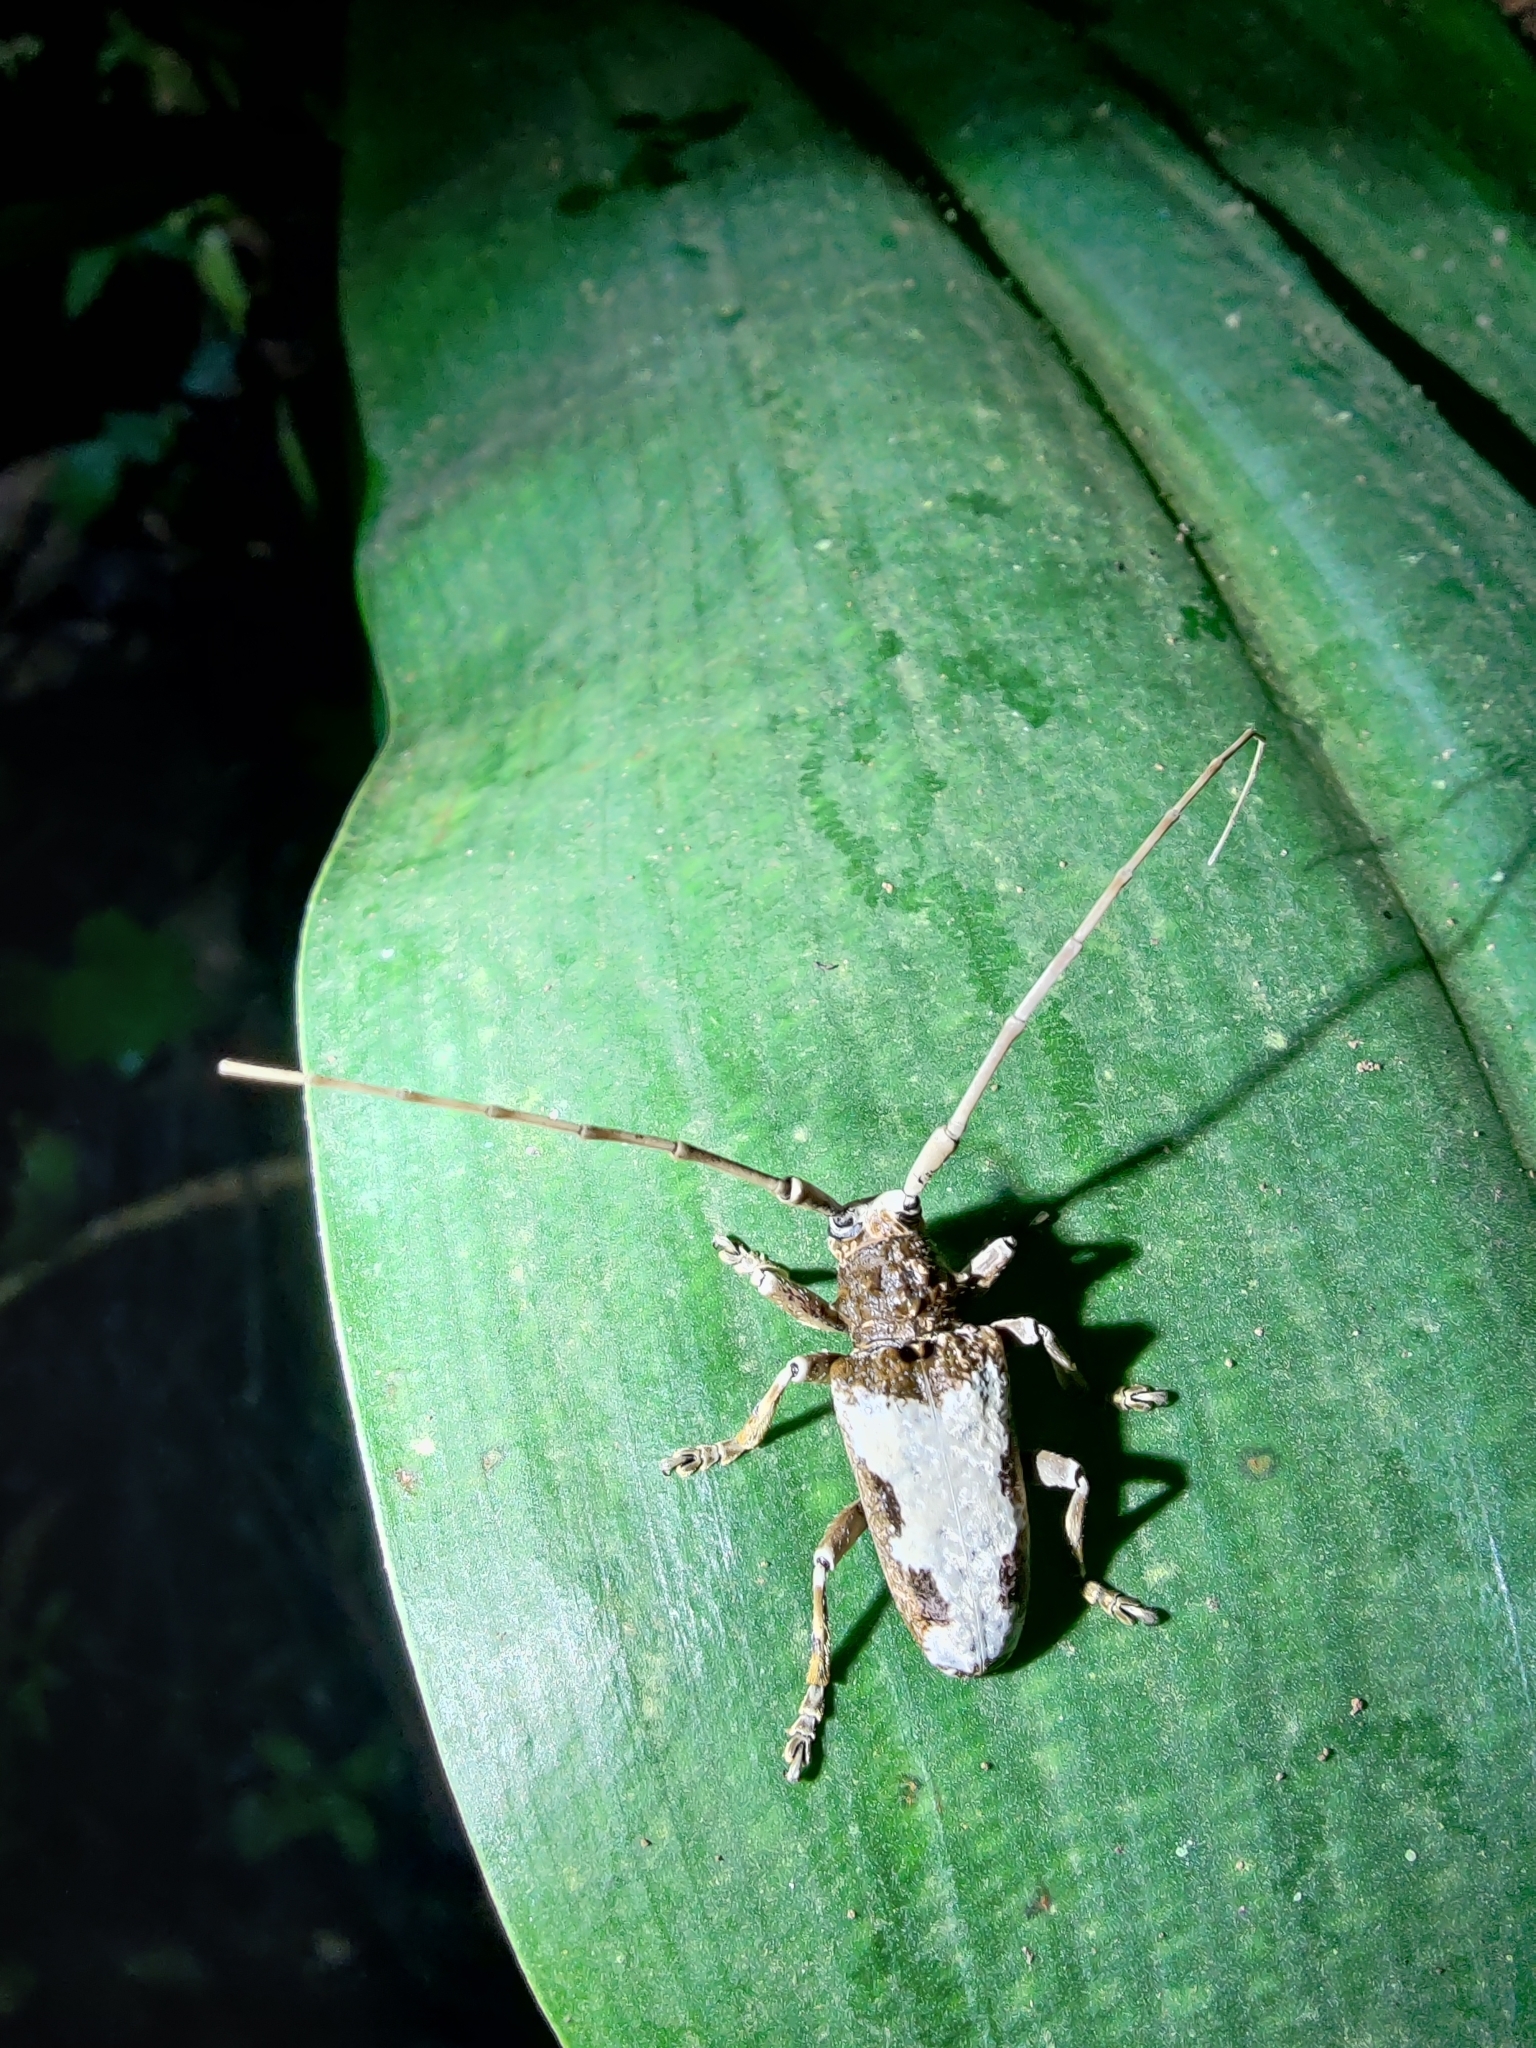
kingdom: Animalia
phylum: Arthropoda
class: Insecta
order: Coleoptera
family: Cerambycidae
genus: Acalolepta
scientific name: Acalolepta nivosa
